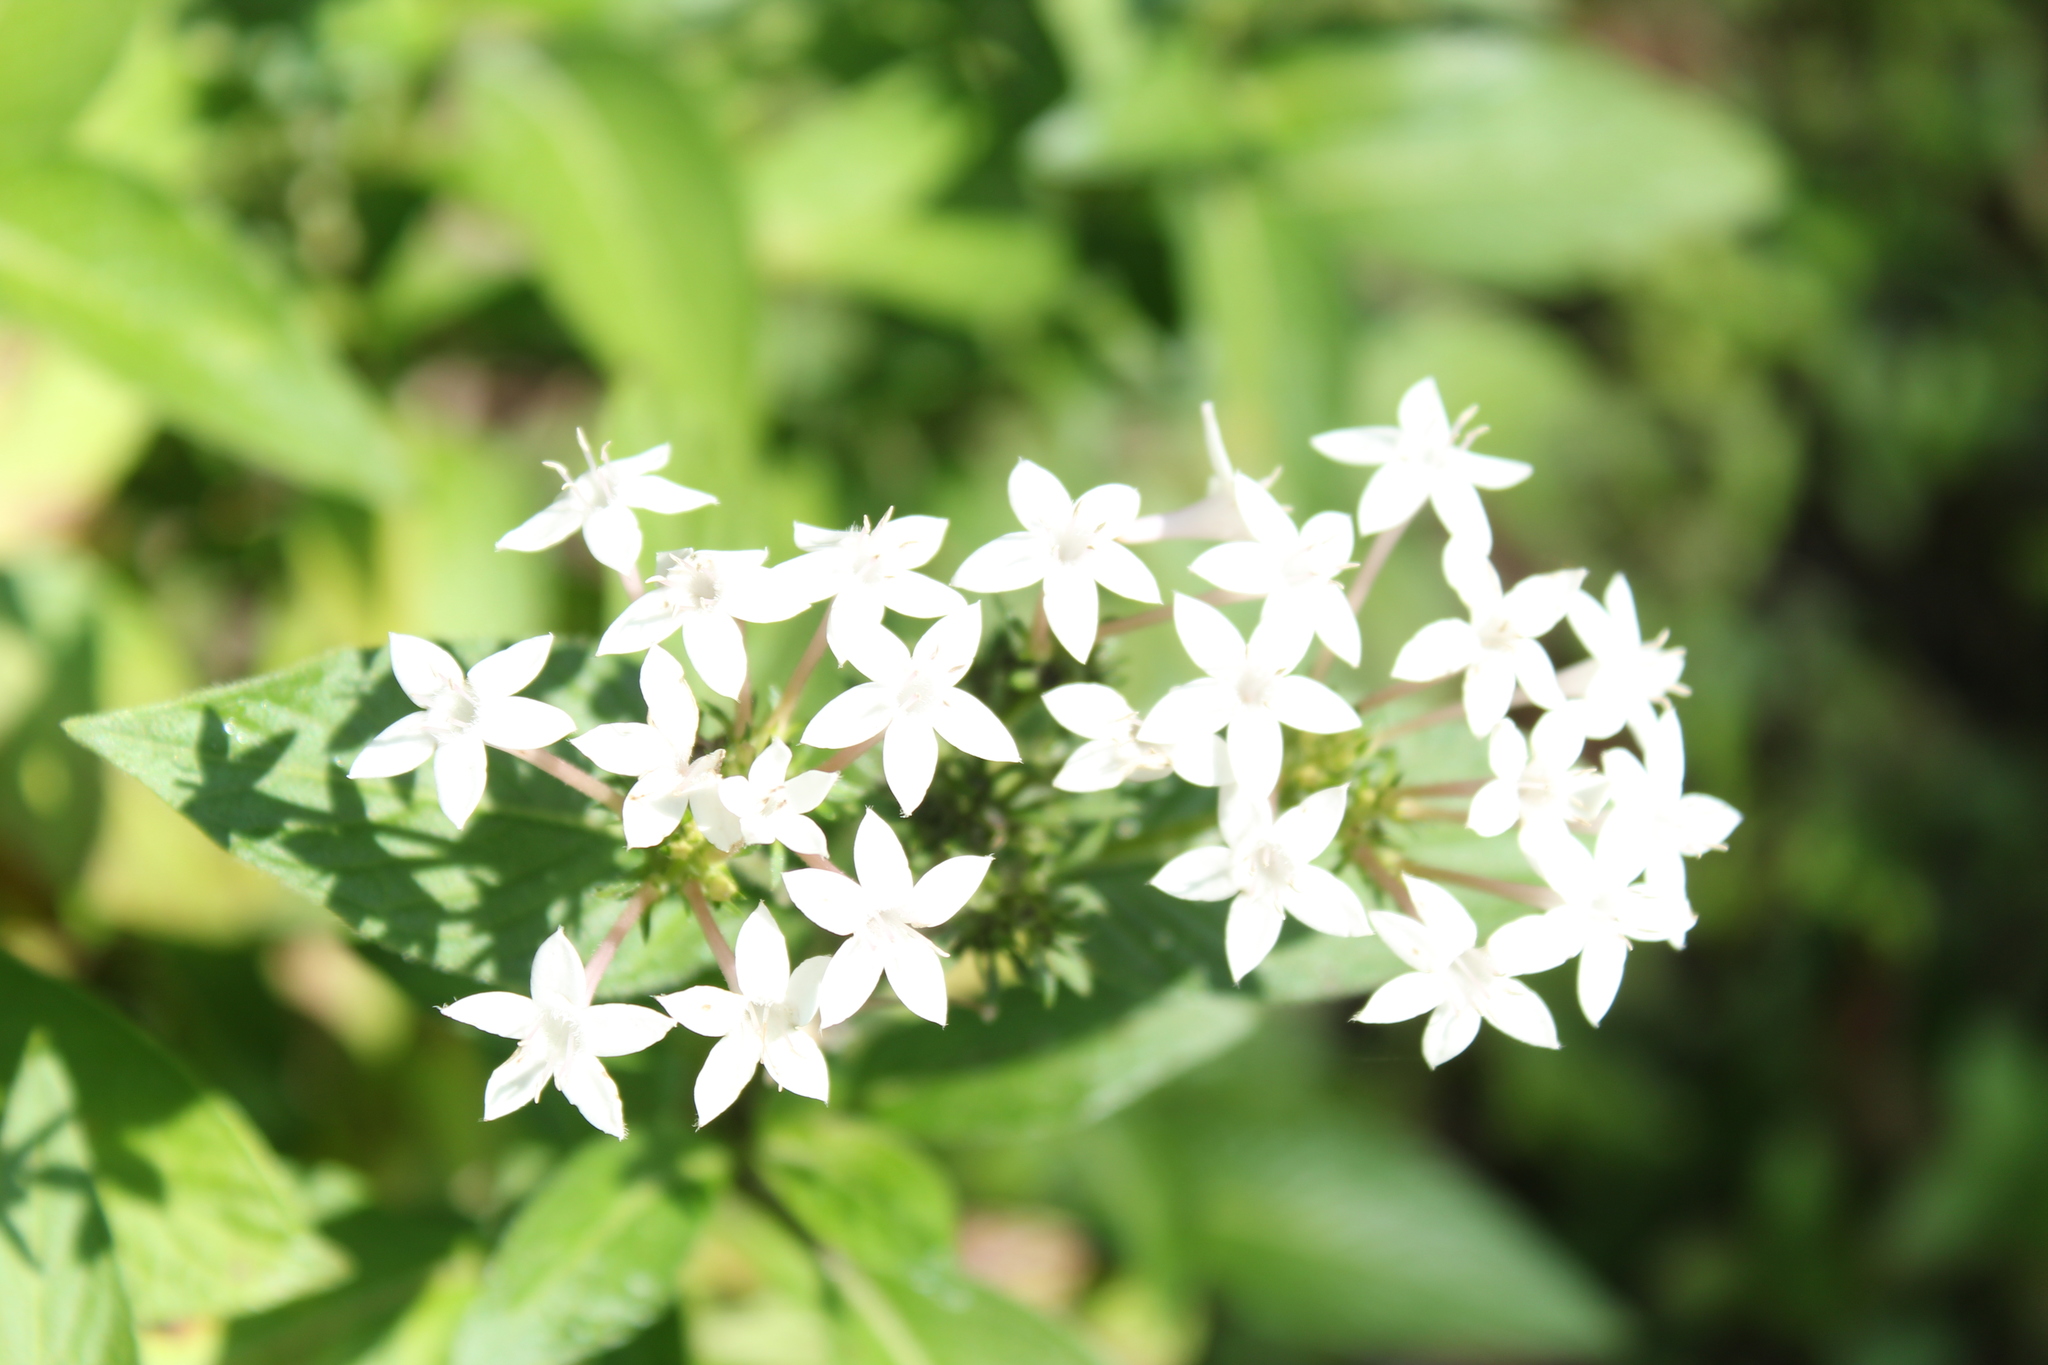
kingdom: Plantae
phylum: Tracheophyta
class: Magnoliopsida
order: Gentianales
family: Rubiaceae
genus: Crusea
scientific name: Crusea longiflora
